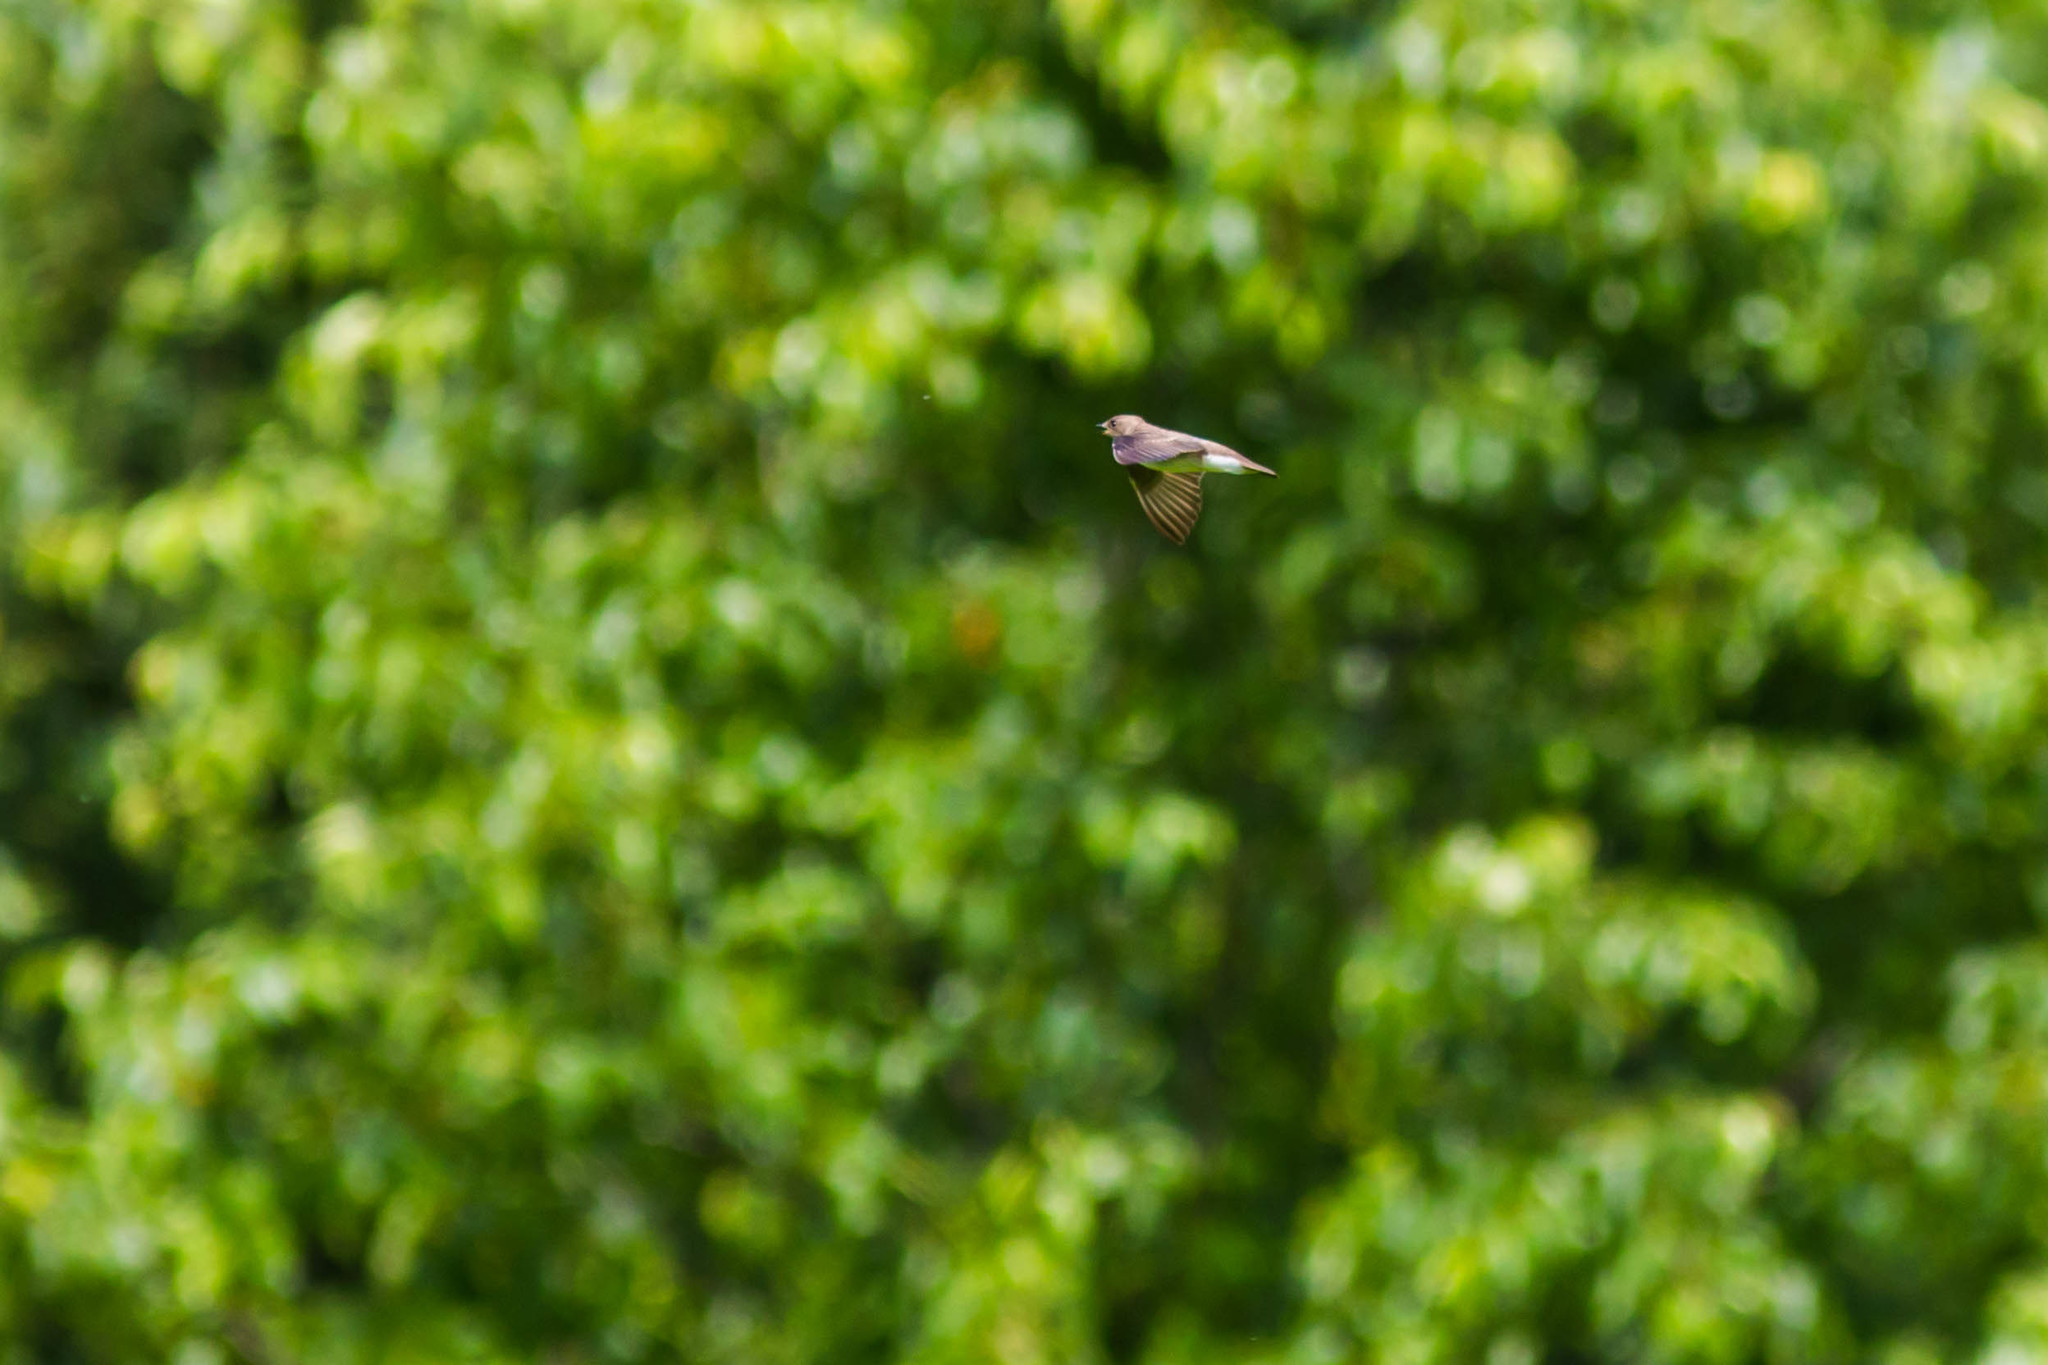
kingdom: Animalia
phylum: Chordata
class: Aves
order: Passeriformes
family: Hirundinidae
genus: Stelgidopteryx
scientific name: Stelgidopteryx serripennis
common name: Northern rough-winged swallow
